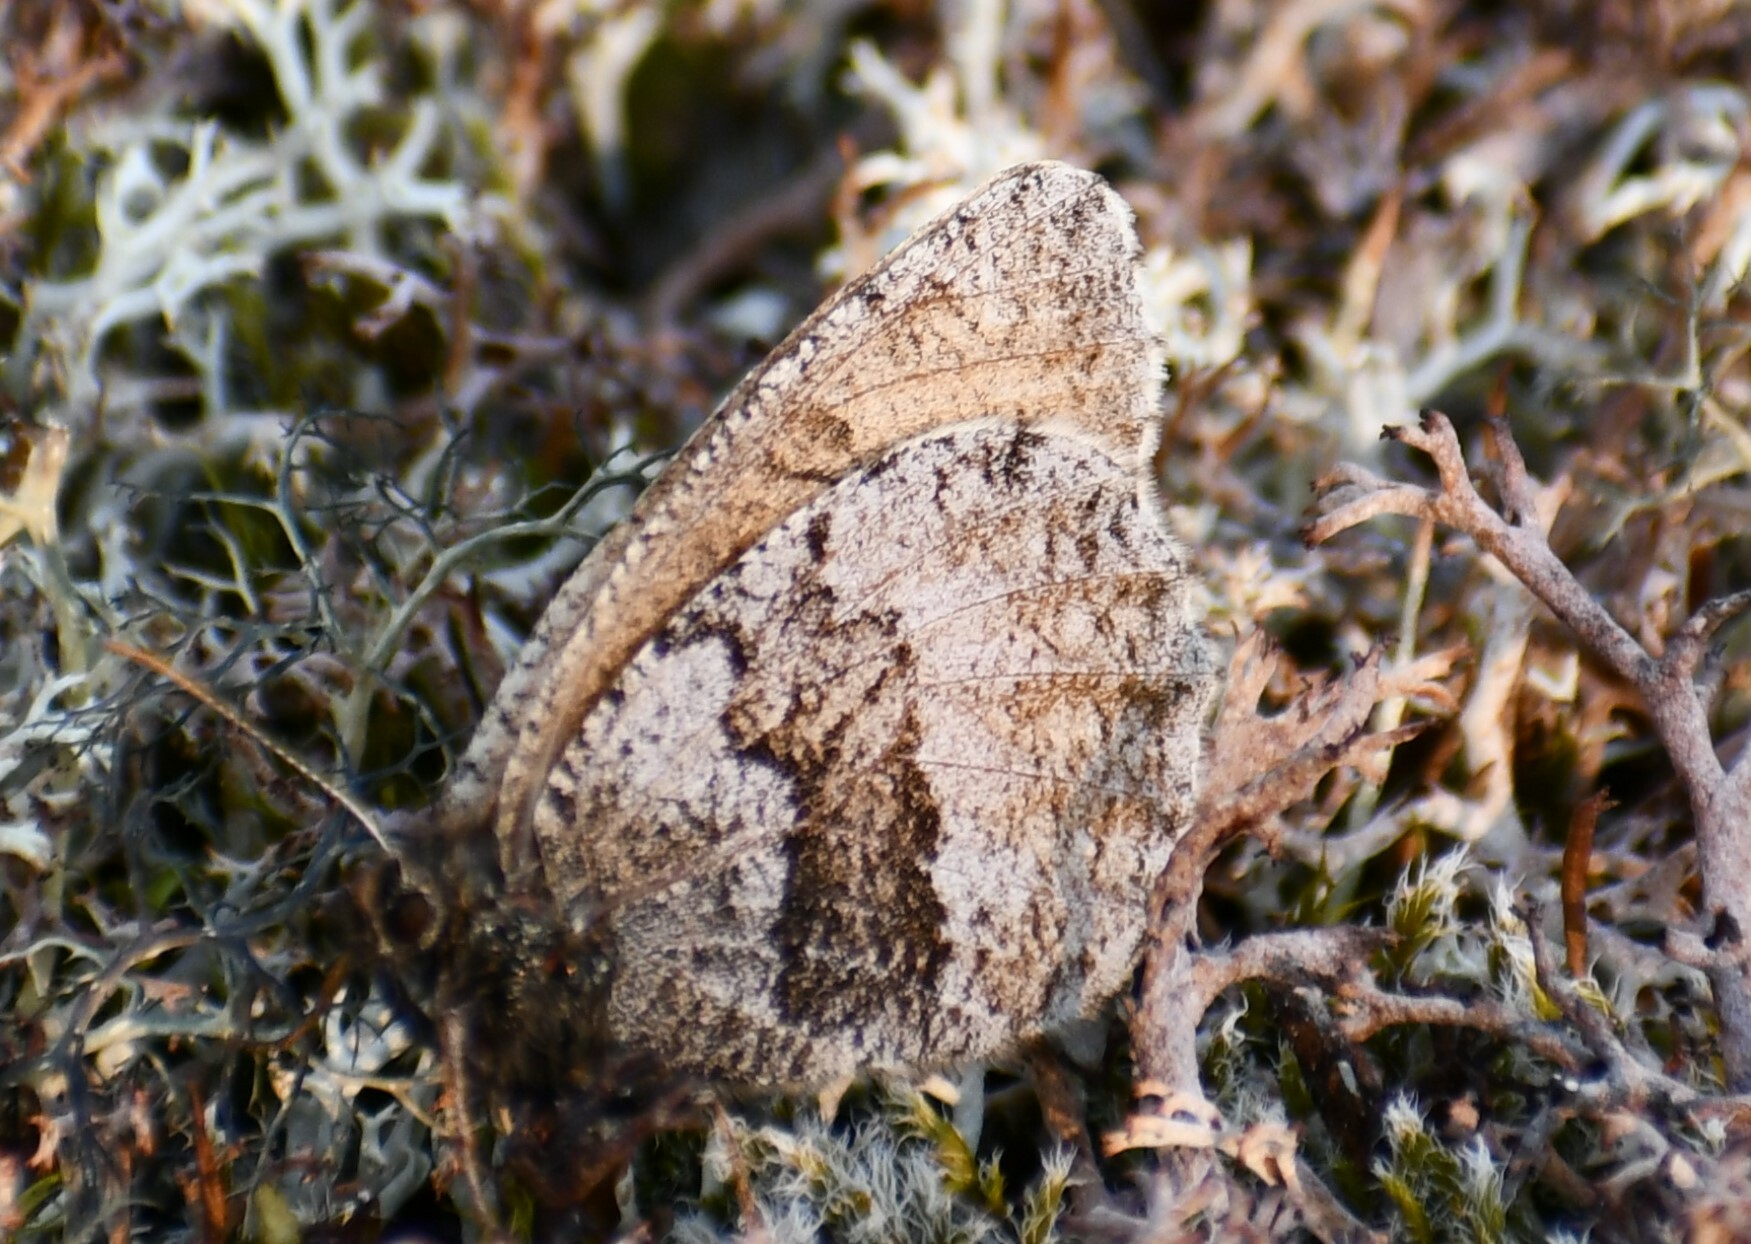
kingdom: Animalia
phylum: Arthropoda
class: Insecta
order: Lepidoptera
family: Nymphalidae
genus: Oeneis
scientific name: Oeneis bore
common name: Arctic grayling
